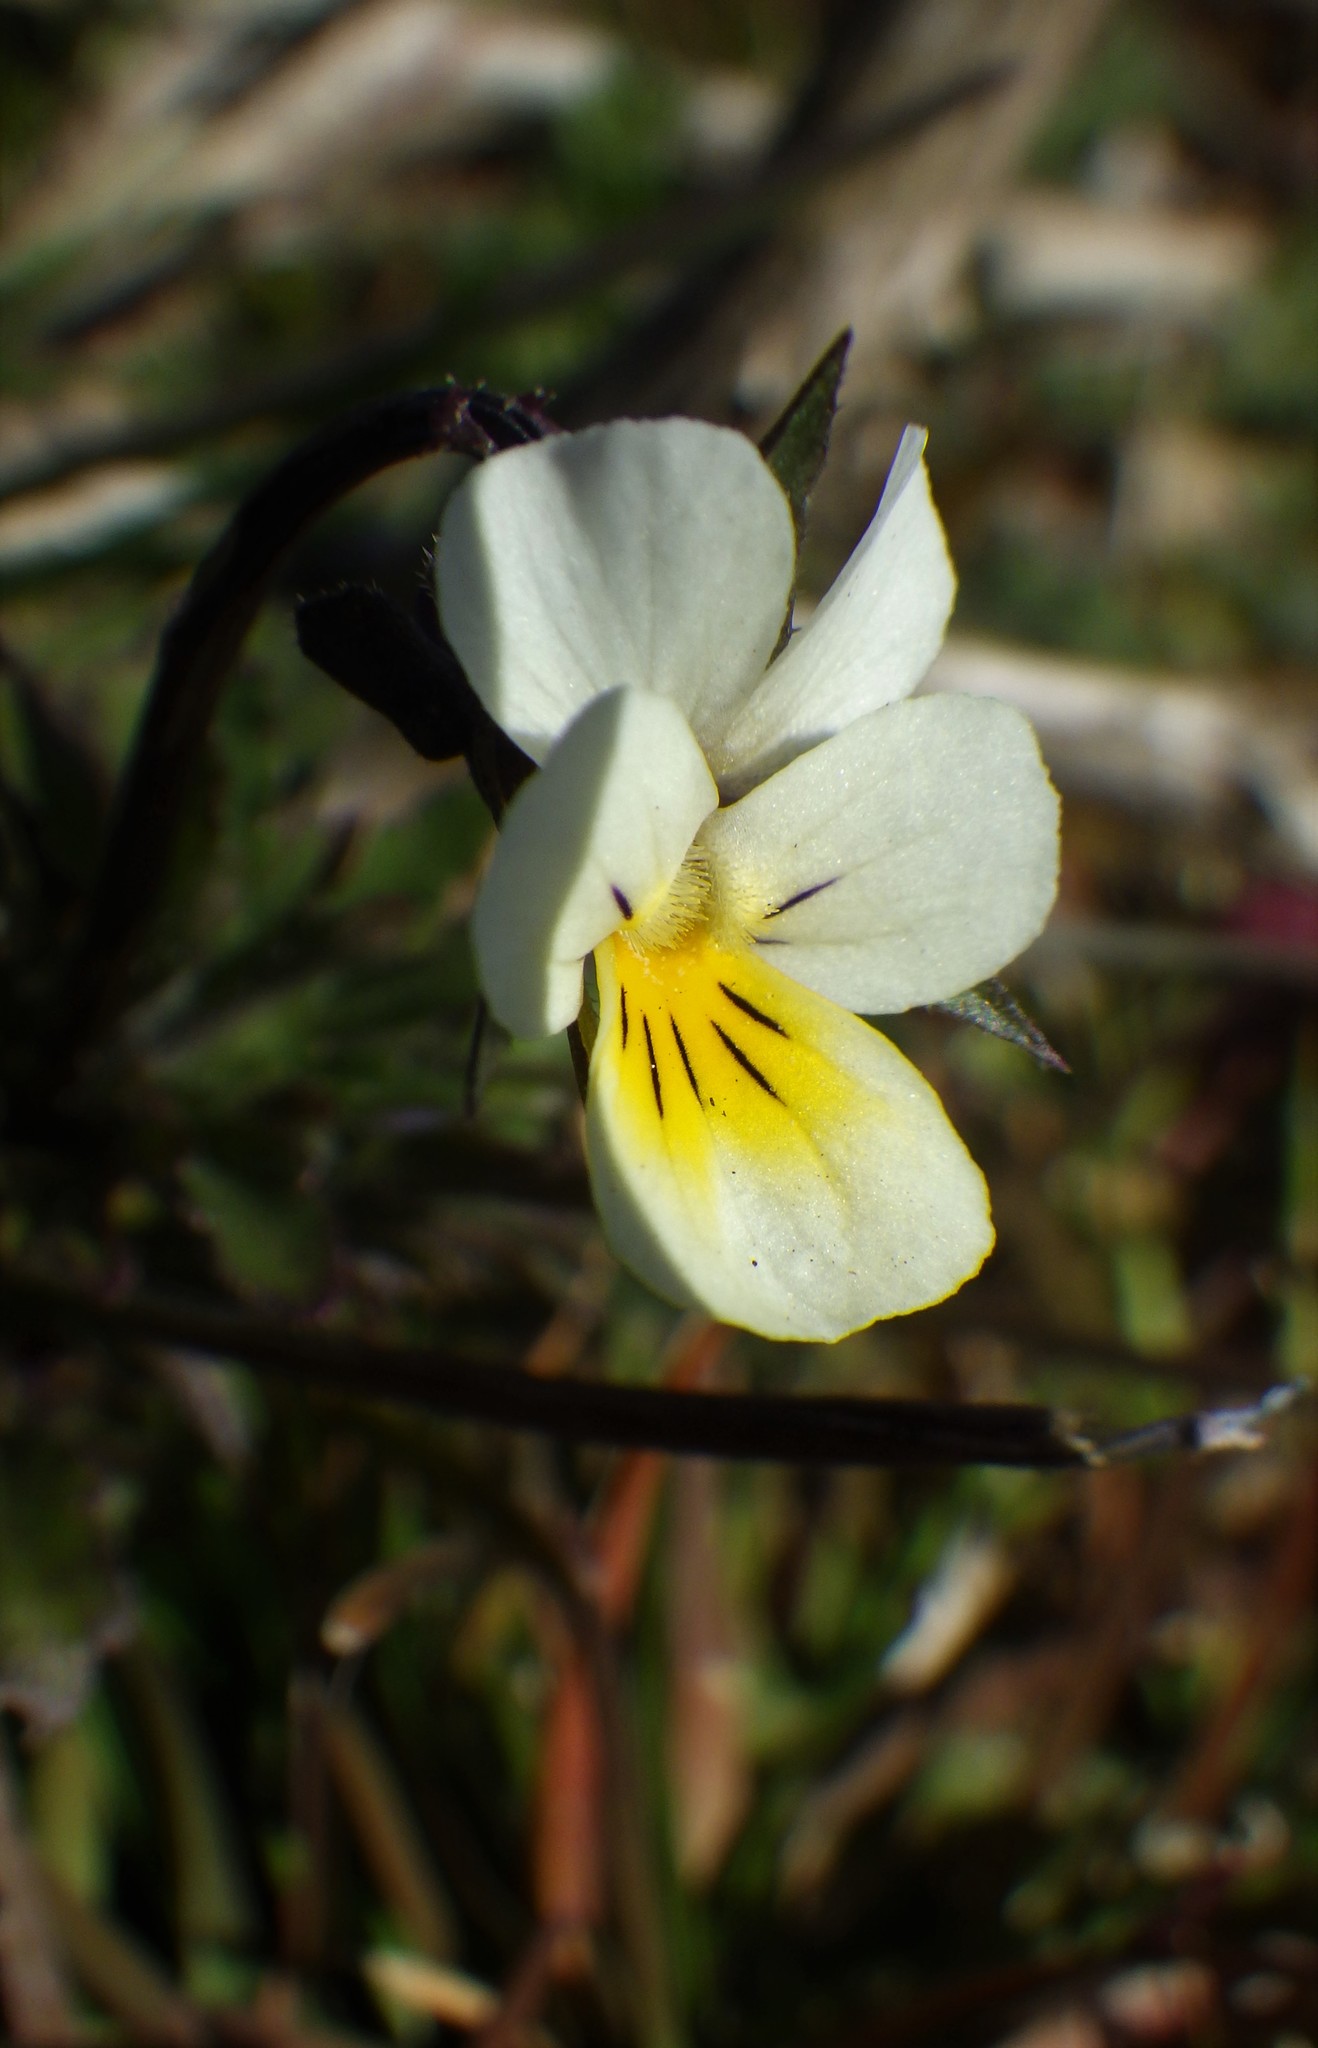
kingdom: Plantae
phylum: Tracheophyta
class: Magnoliopsida
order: Malpighiales
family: Violaceae
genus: Viola
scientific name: Viola arvensis
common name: Field pansy
